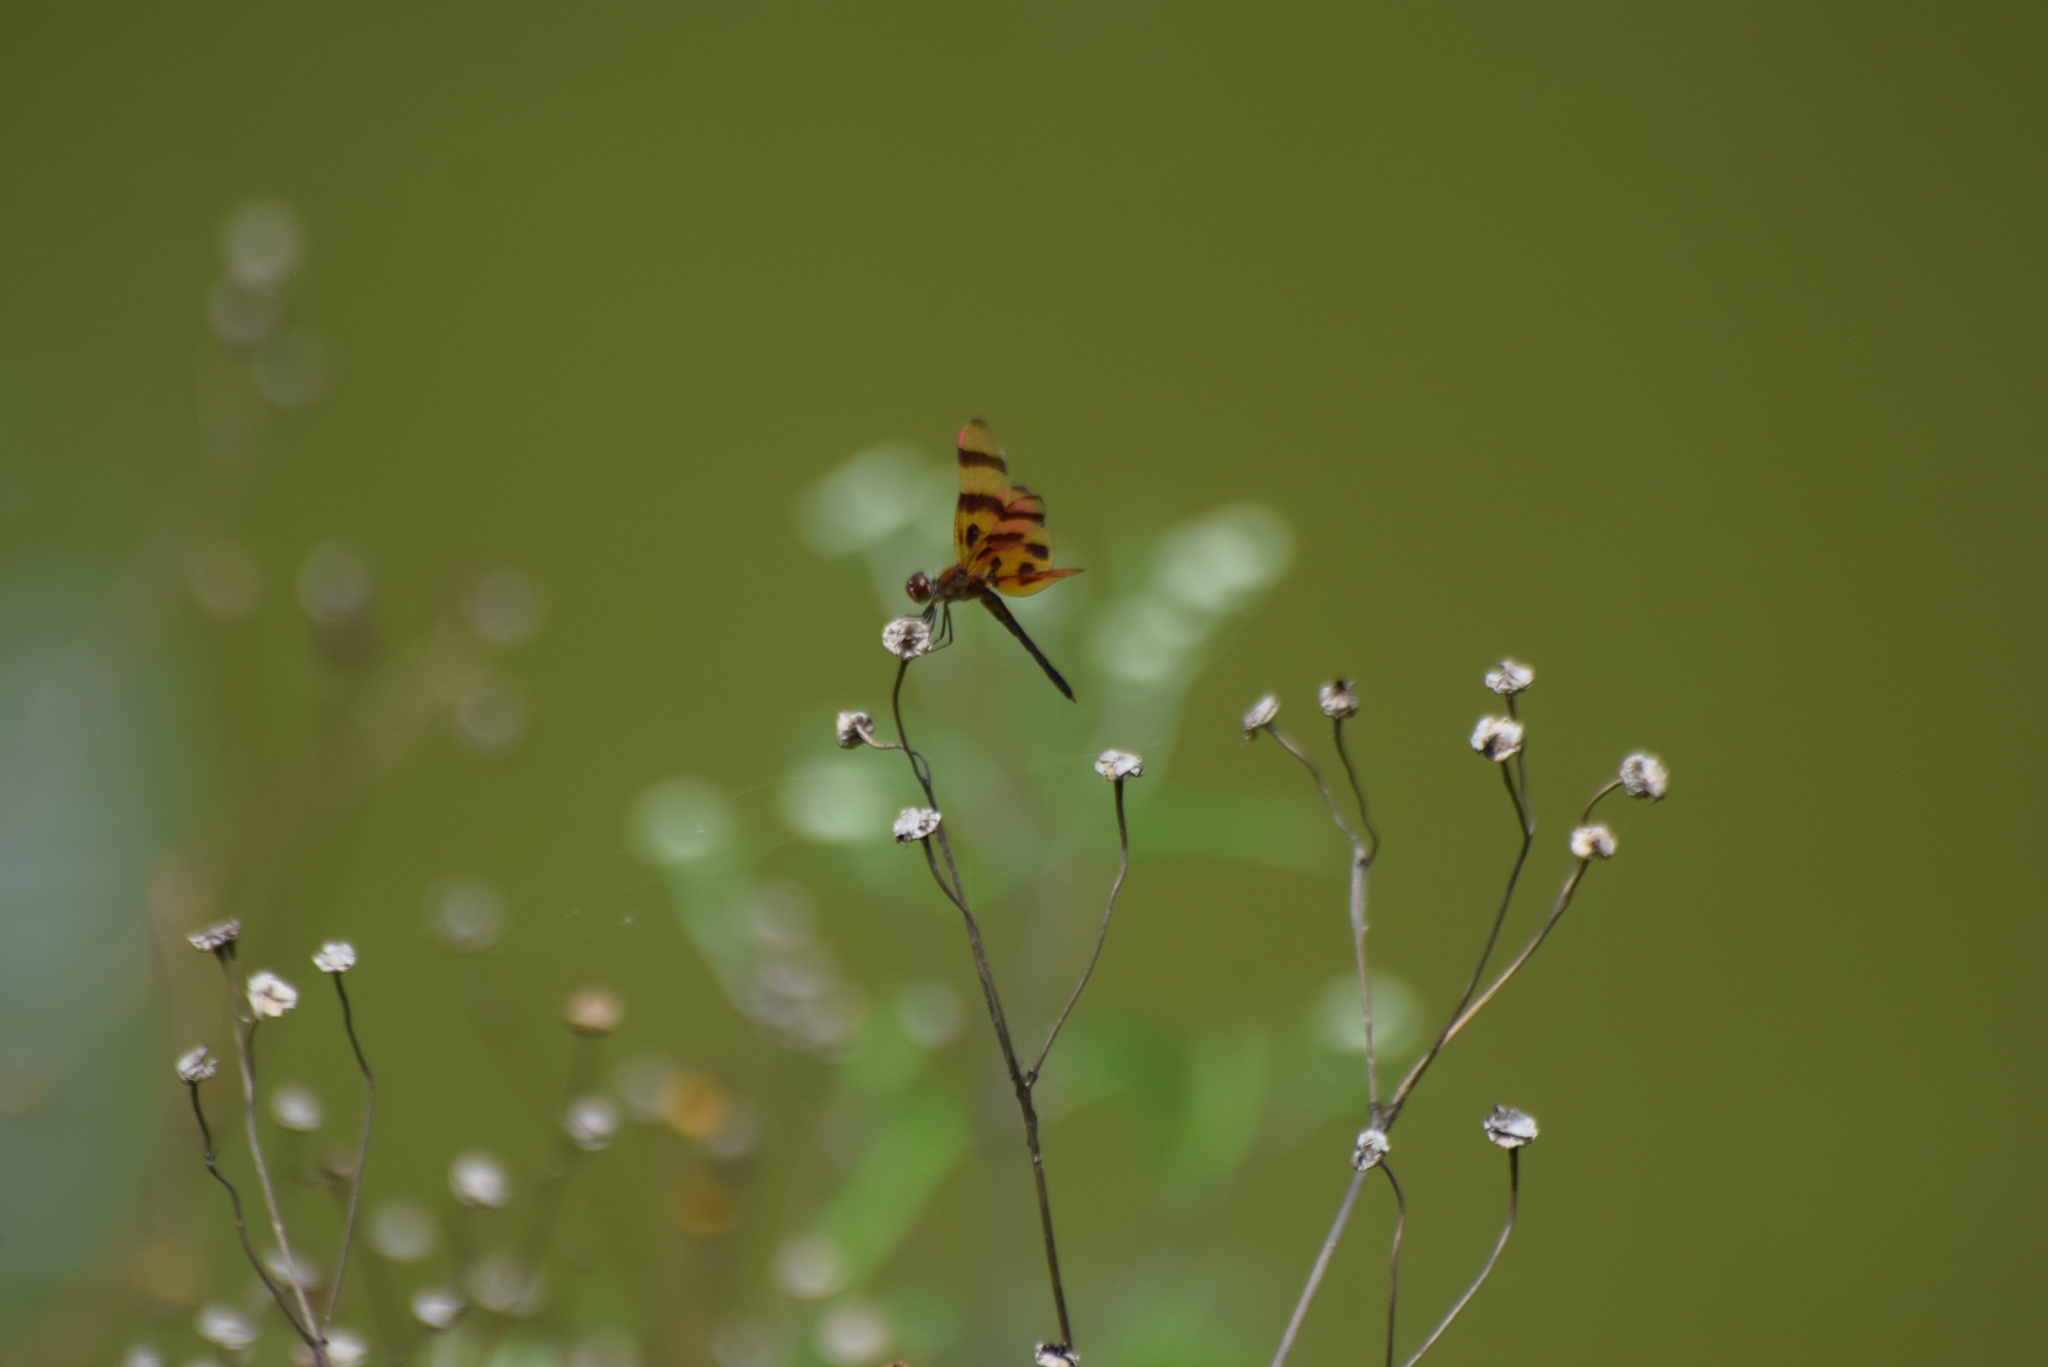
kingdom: Animalia
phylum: Arthropoda
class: Insecta
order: Odonata
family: Libellulidae
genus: Celithemis
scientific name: Celithemis eponina
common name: Halloween pennant
